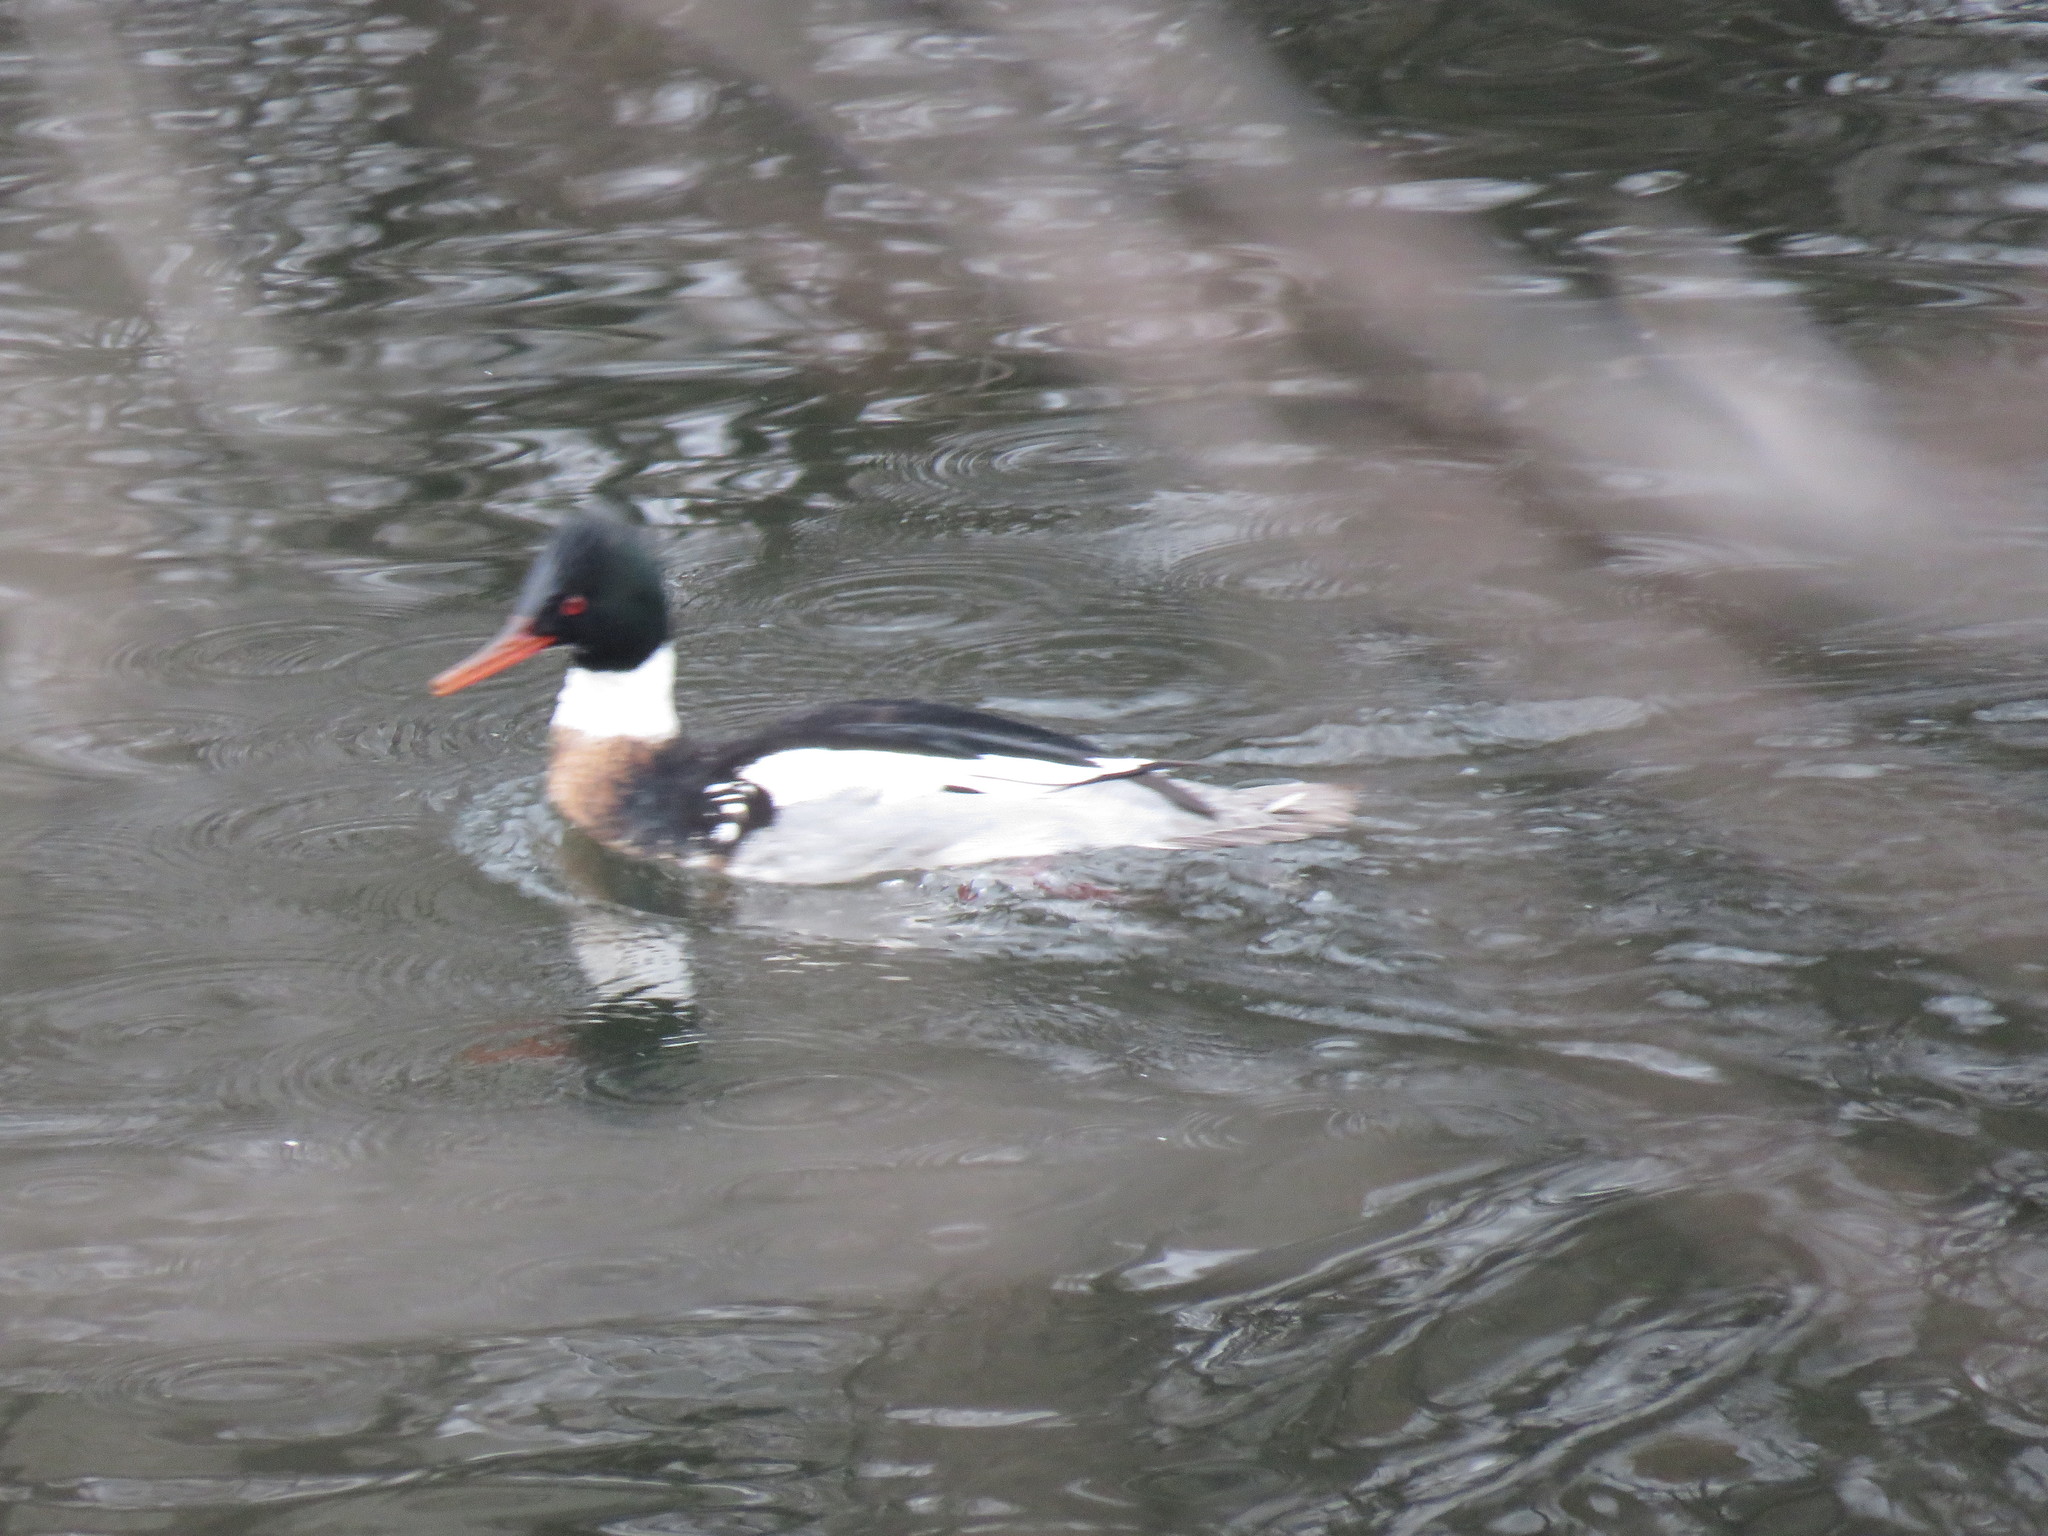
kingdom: Animalia
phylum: Chordata
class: Aves
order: Anseriformes
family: Anatidae
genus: Mergus
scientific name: Mergus serrator
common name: Red-breasted merganser
